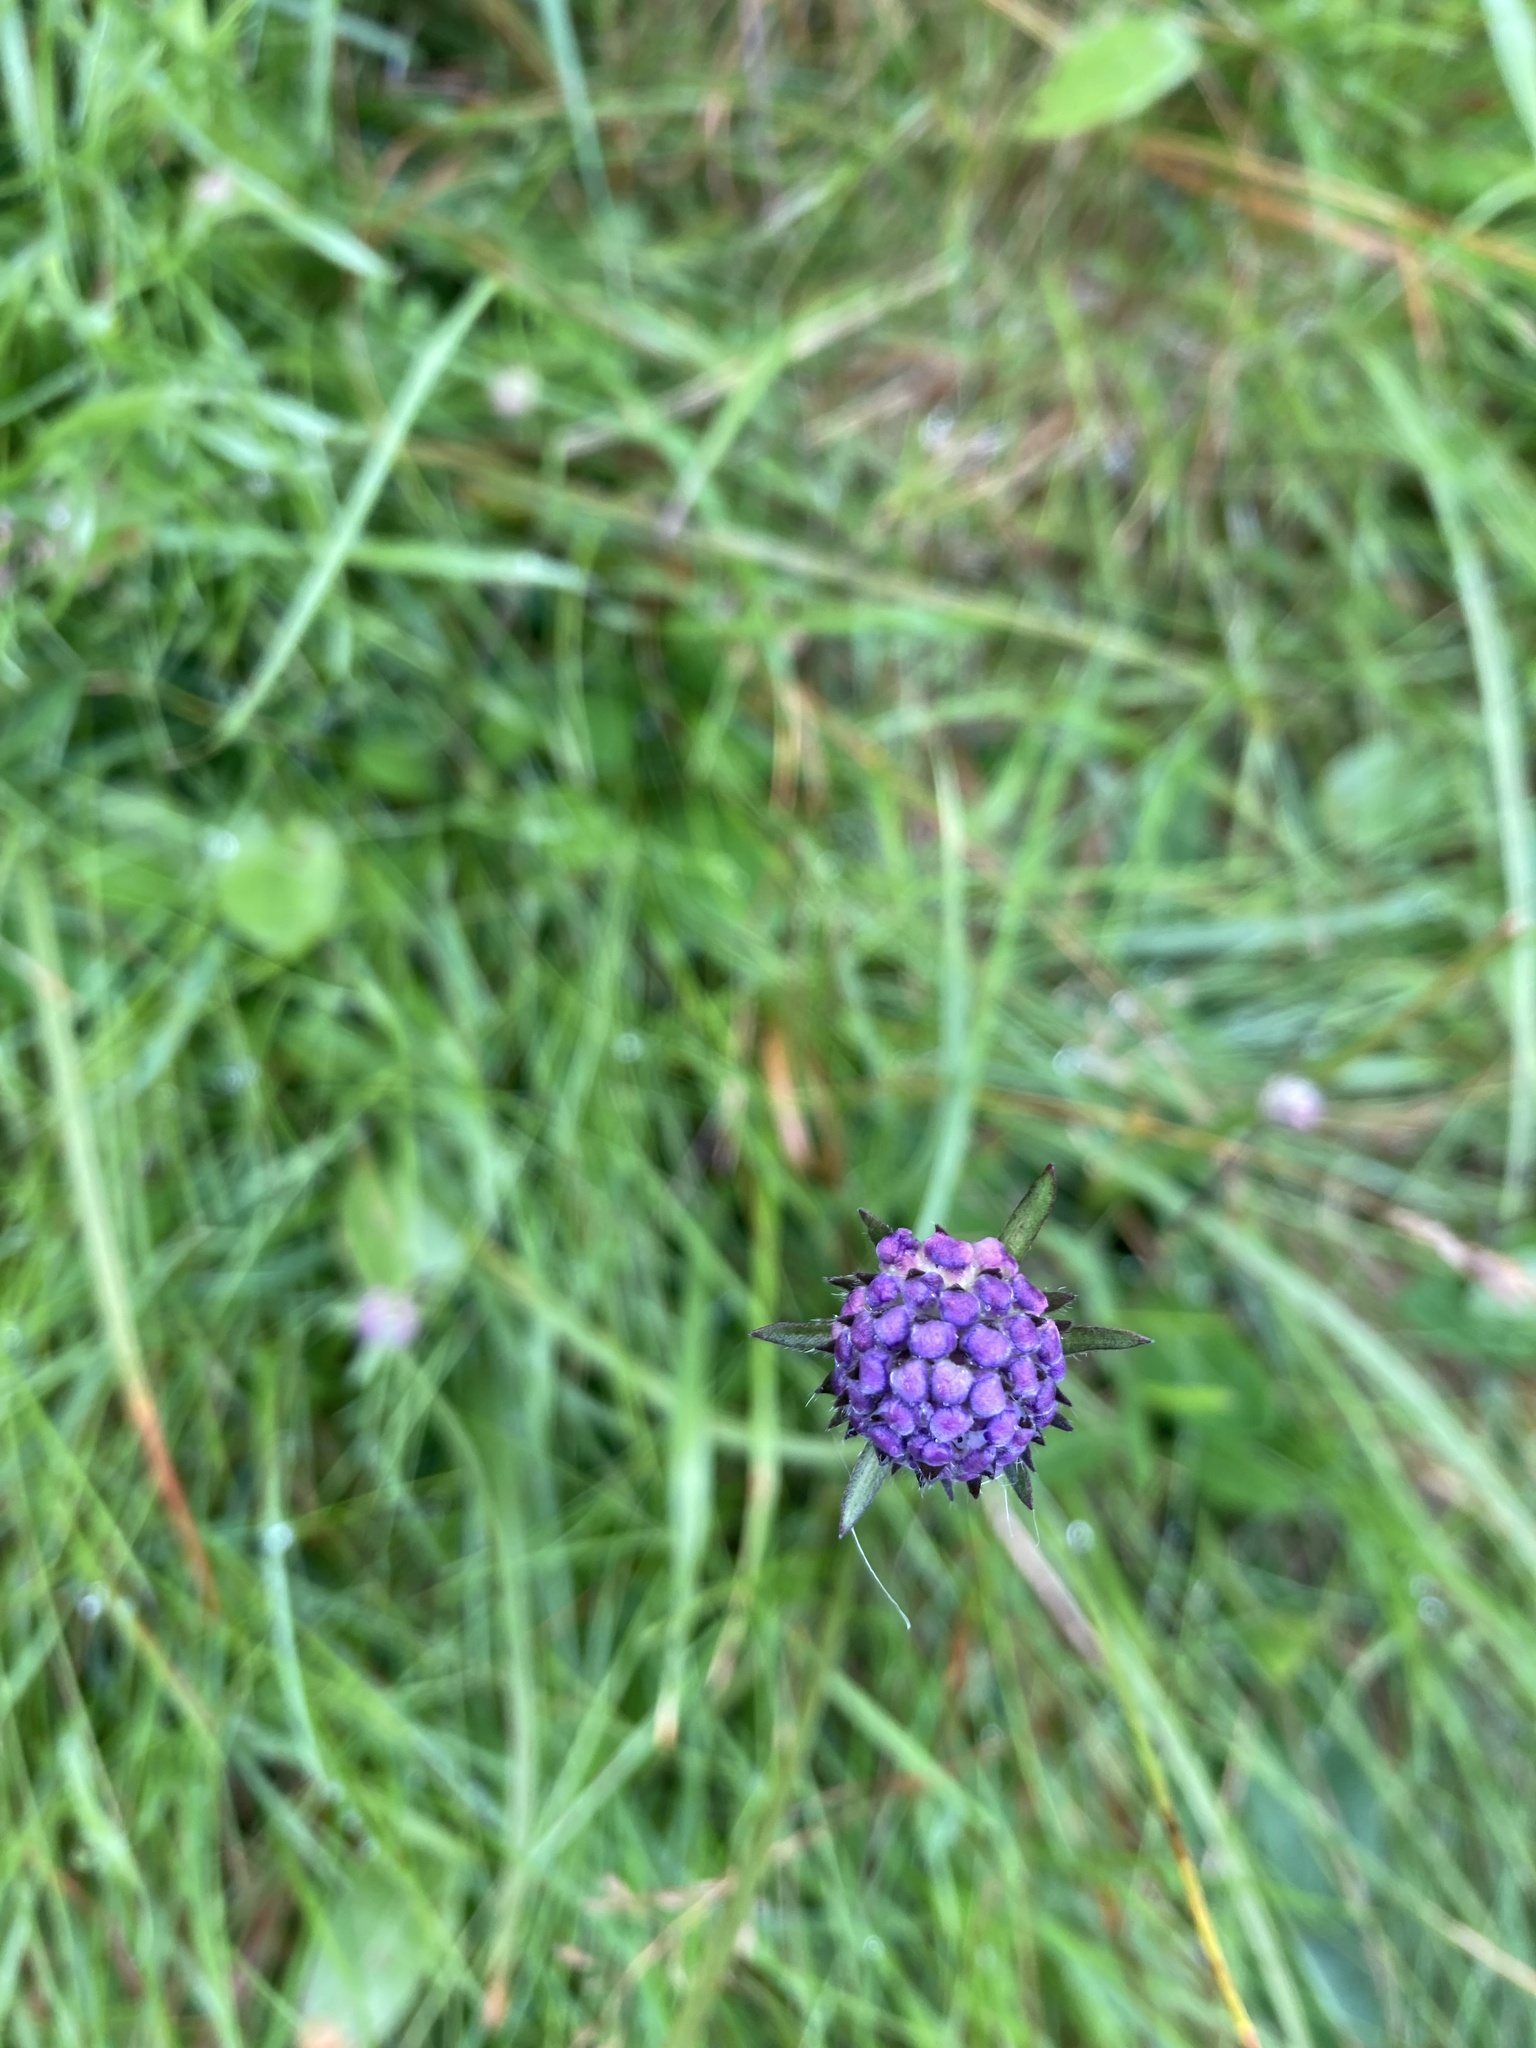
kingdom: Plantae
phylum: Tracheophyta
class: Magnoliopsida
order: Dipsacales
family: Caprifoliaceae
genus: Succisa
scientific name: Succisa pratensis
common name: Devil's-bit
